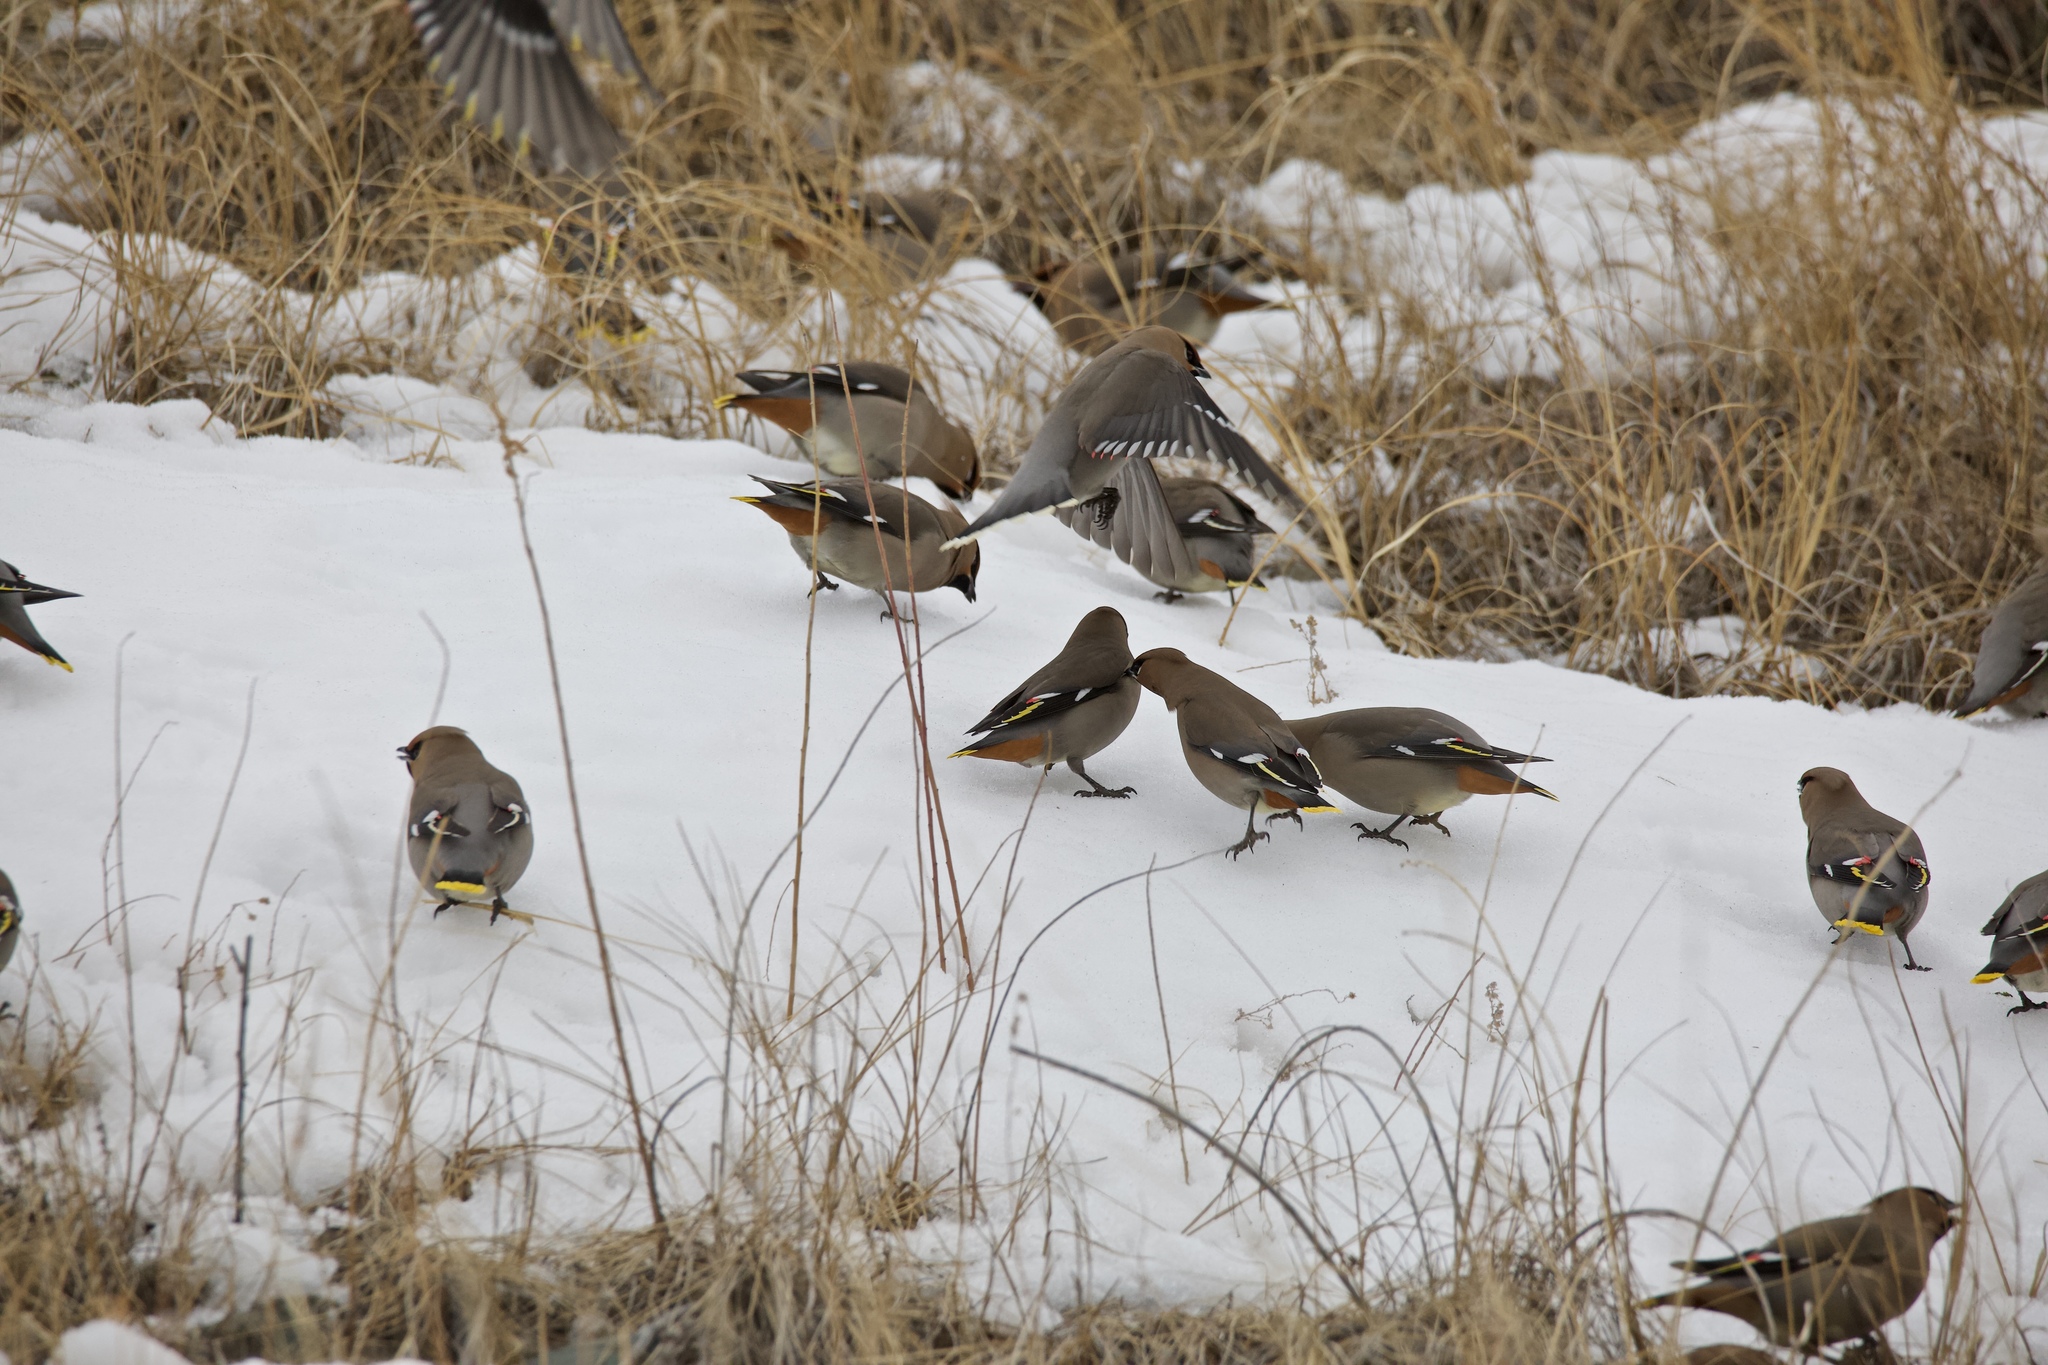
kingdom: Animalia
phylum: Chordata
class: Aves
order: Passeriformes
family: Bombycillidae
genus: Bombycilla
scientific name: Bombycilla garrulus
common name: Bohemian waxwing
